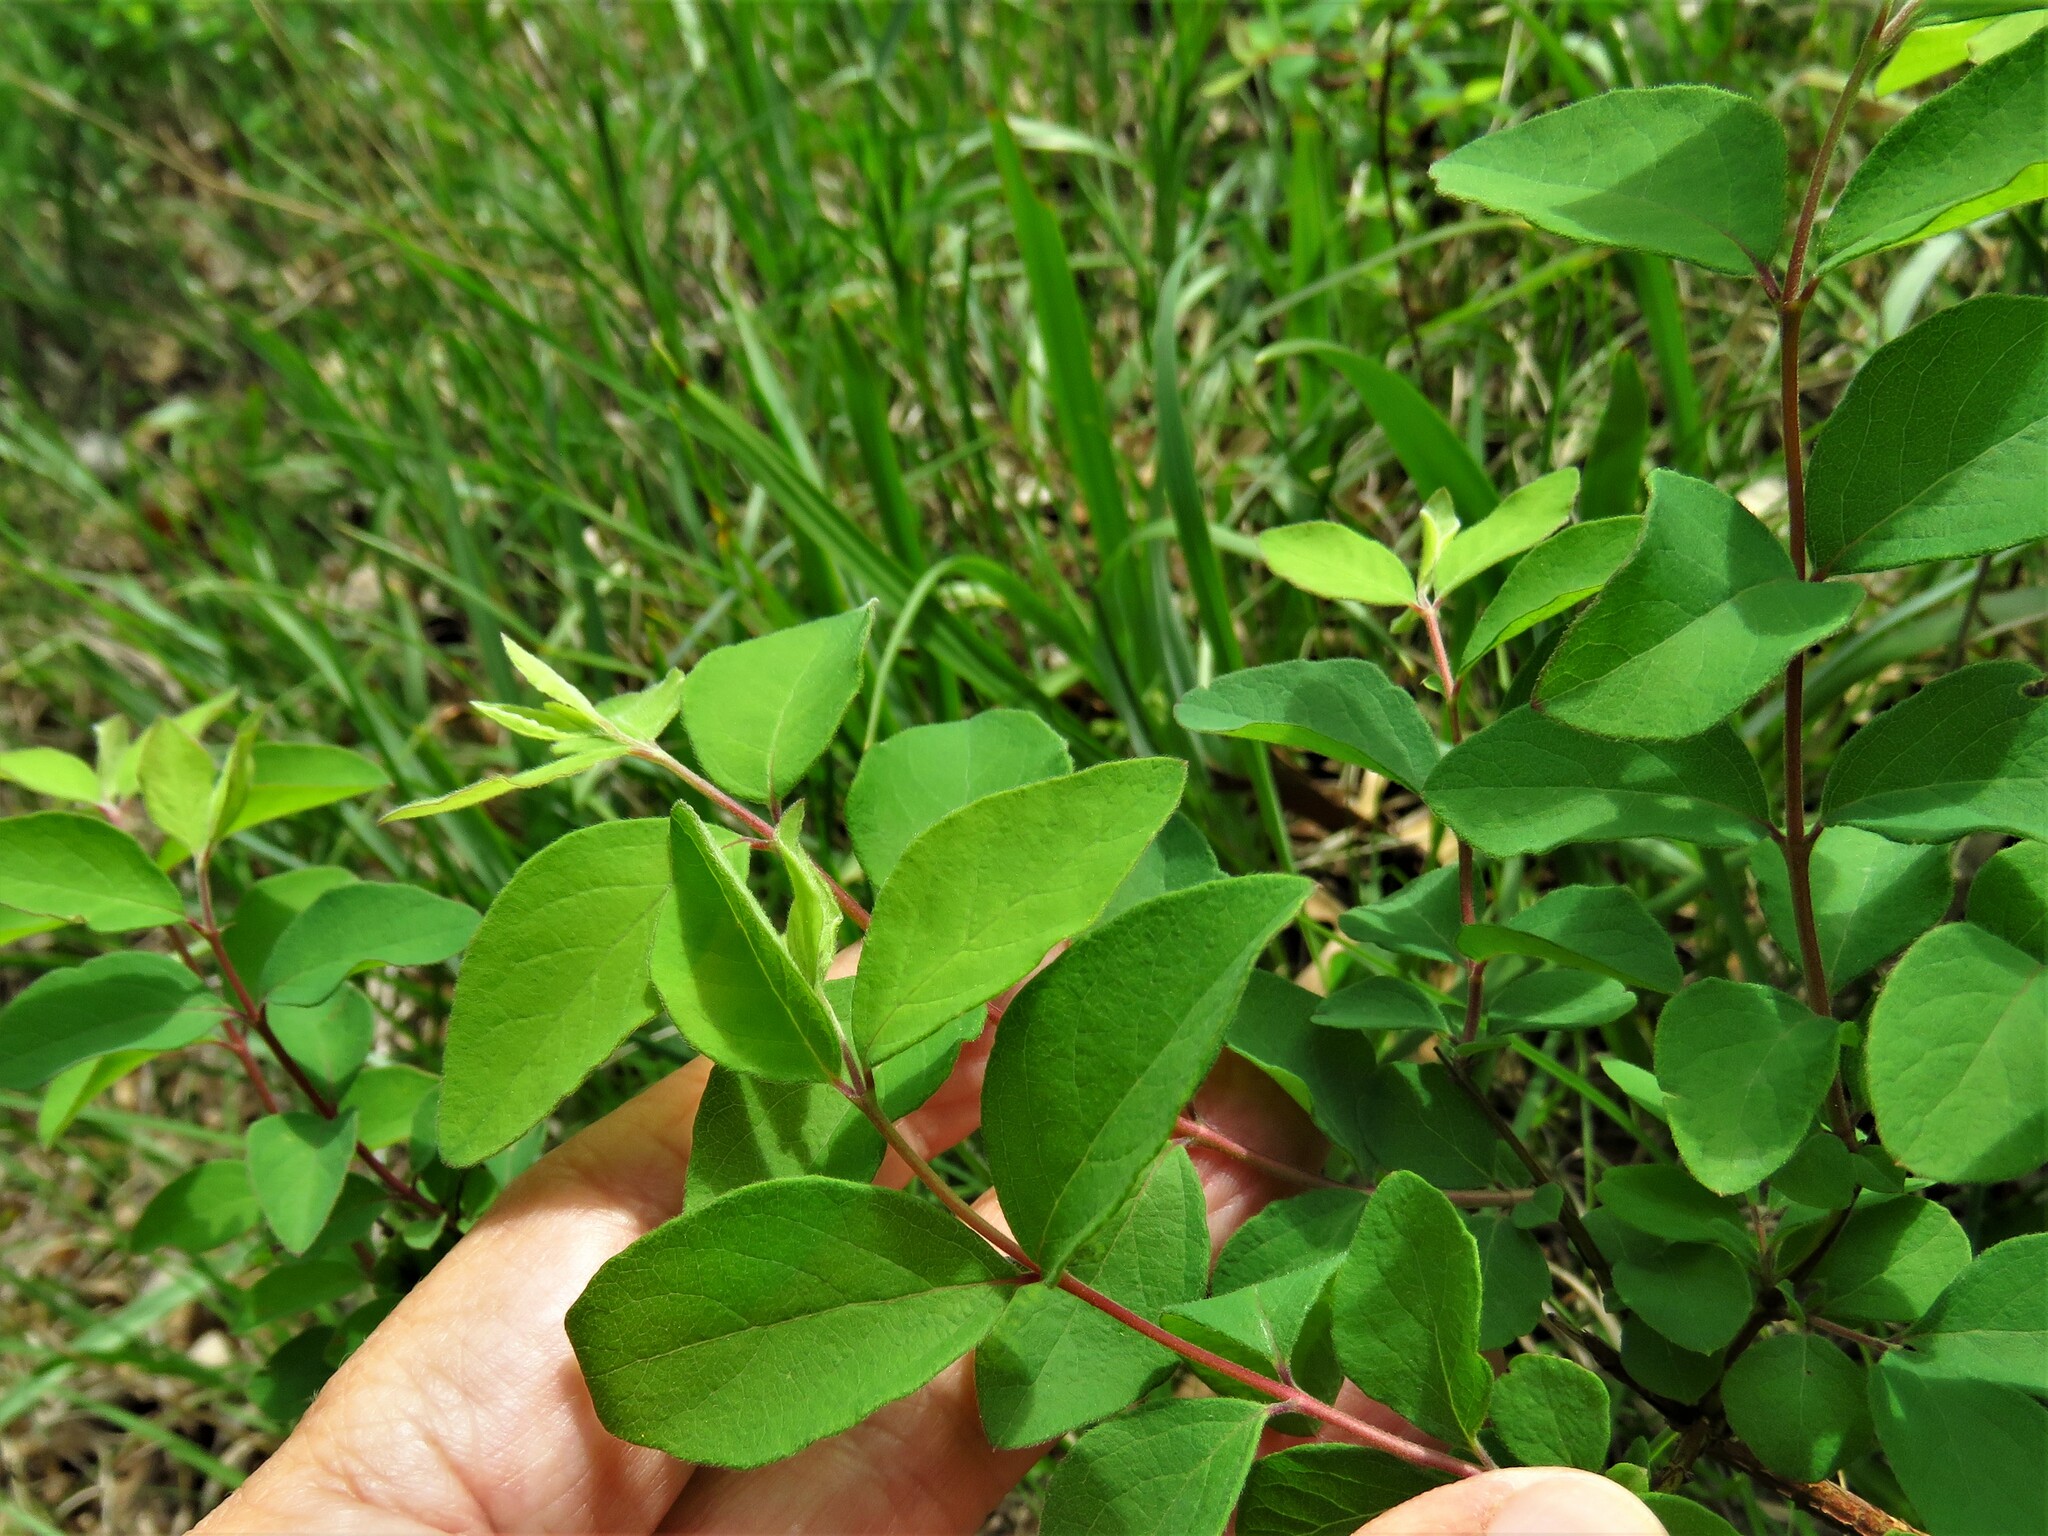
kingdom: Plantae
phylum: Tracheophyta
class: Magnoliopsida
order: Dipsacales
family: Caprifoliaceae
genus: Symphoricarpos
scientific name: Symphoricarpos orbiculatus
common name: Coralberry
